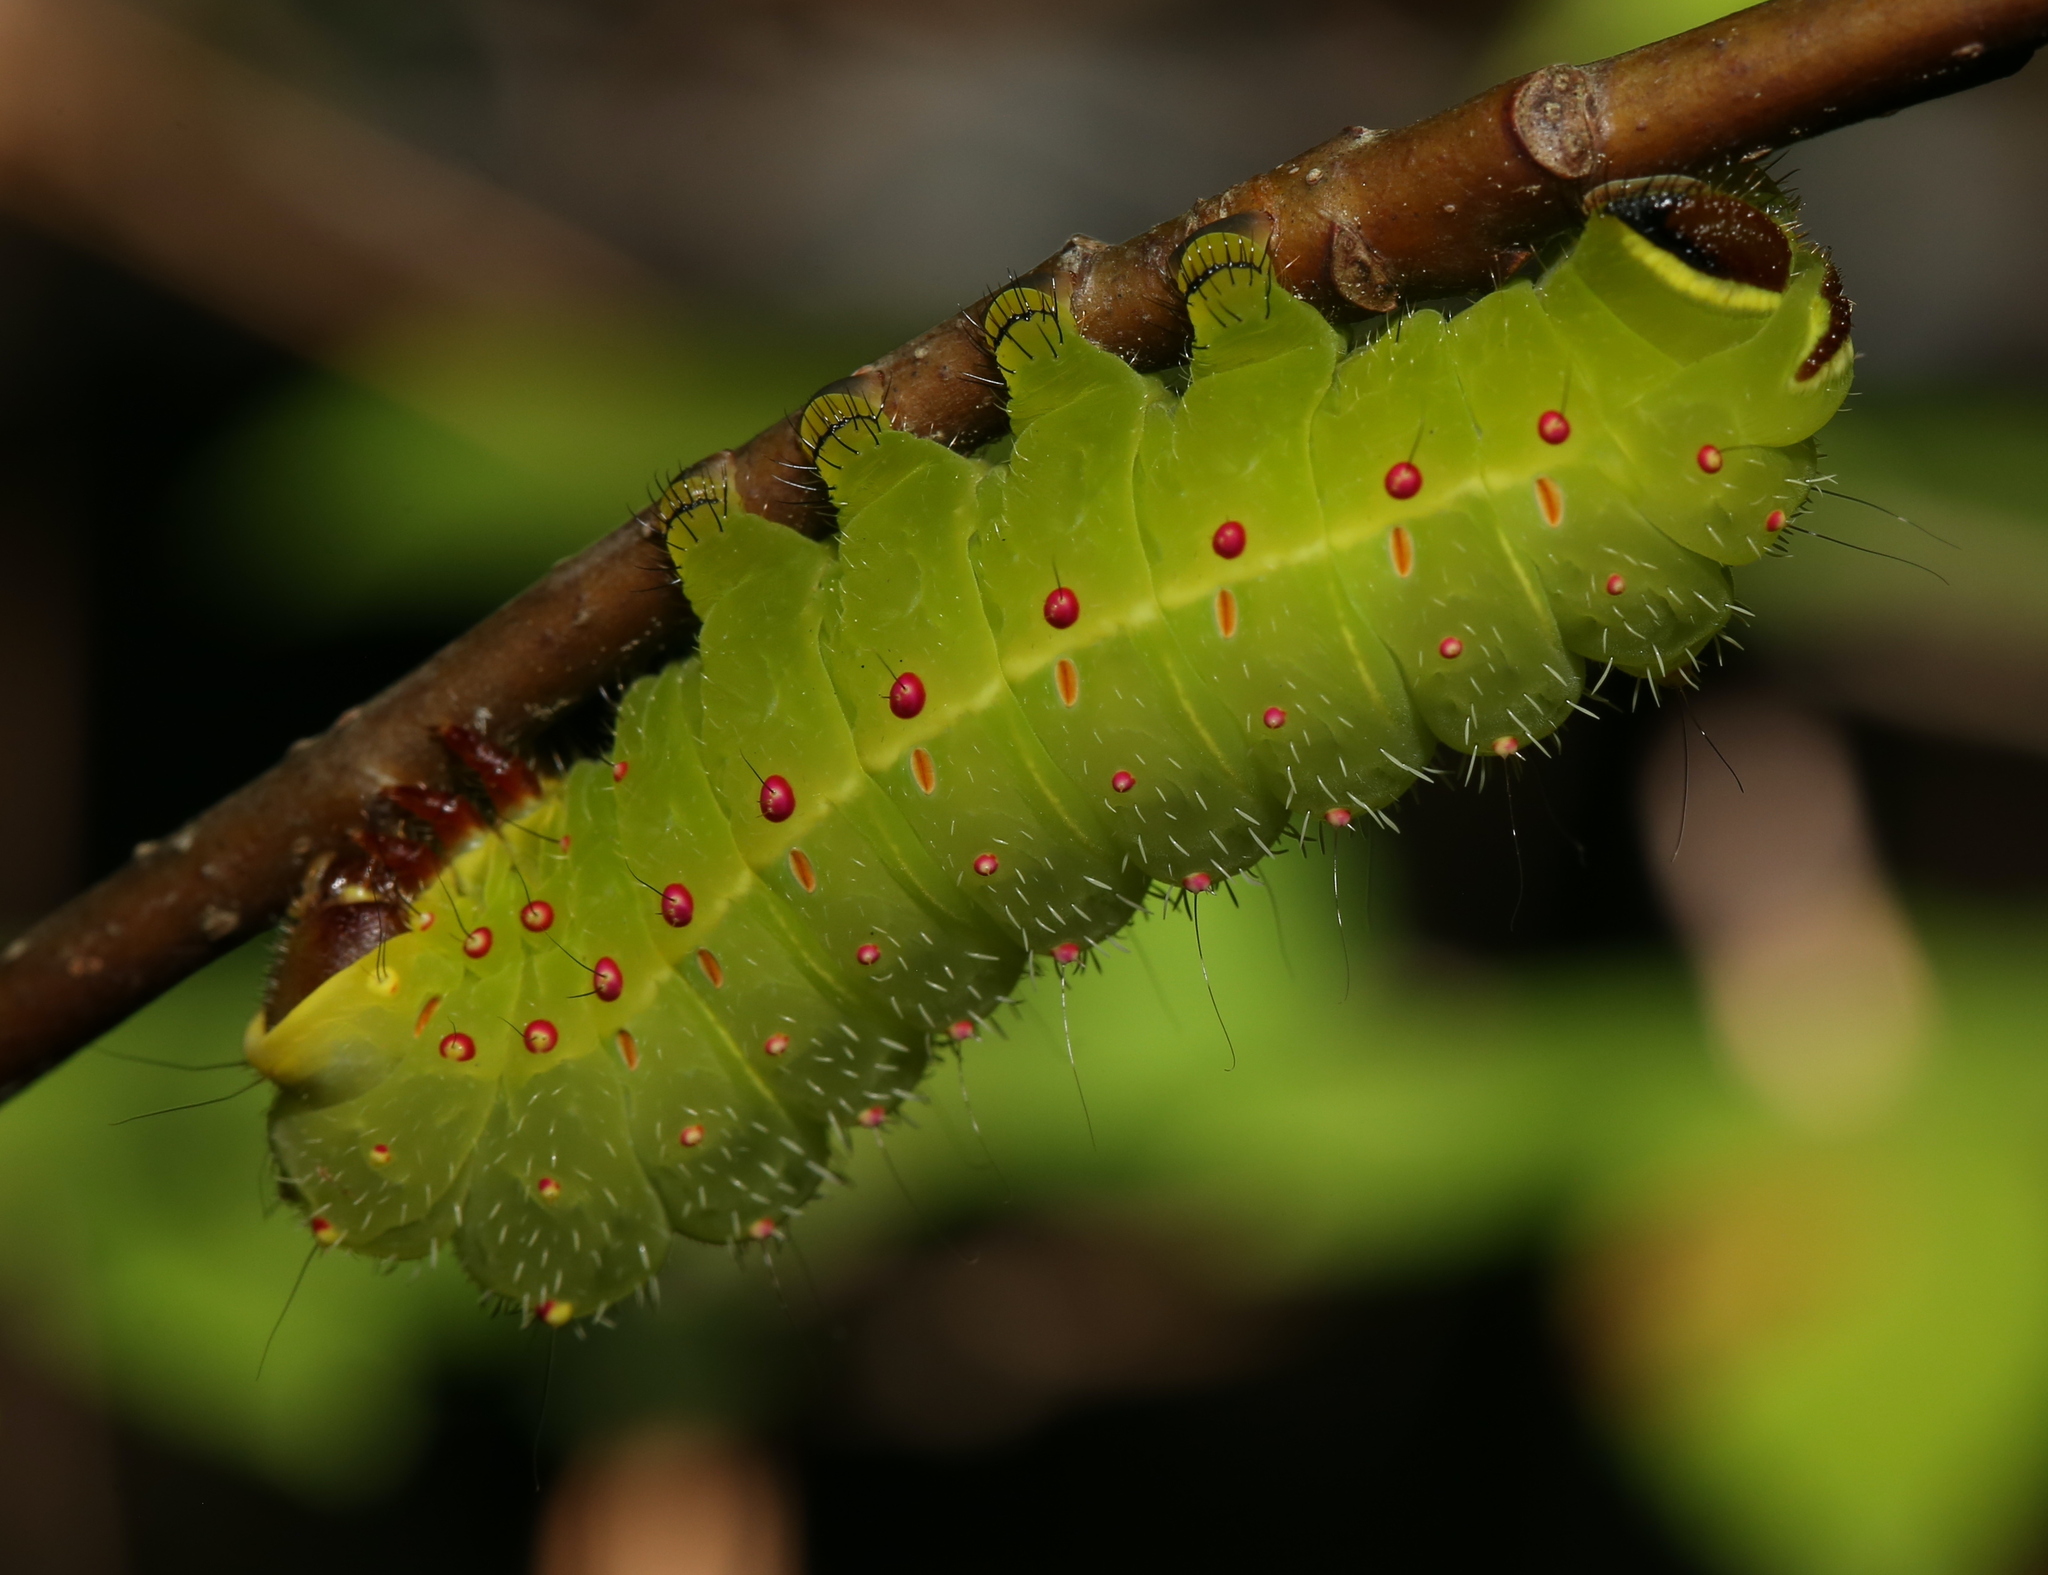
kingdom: Animalia
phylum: Arthropoda
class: Insecta
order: Lepidoptera
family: Saturniidae
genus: Actias
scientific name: Actias luna
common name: Luna moth
